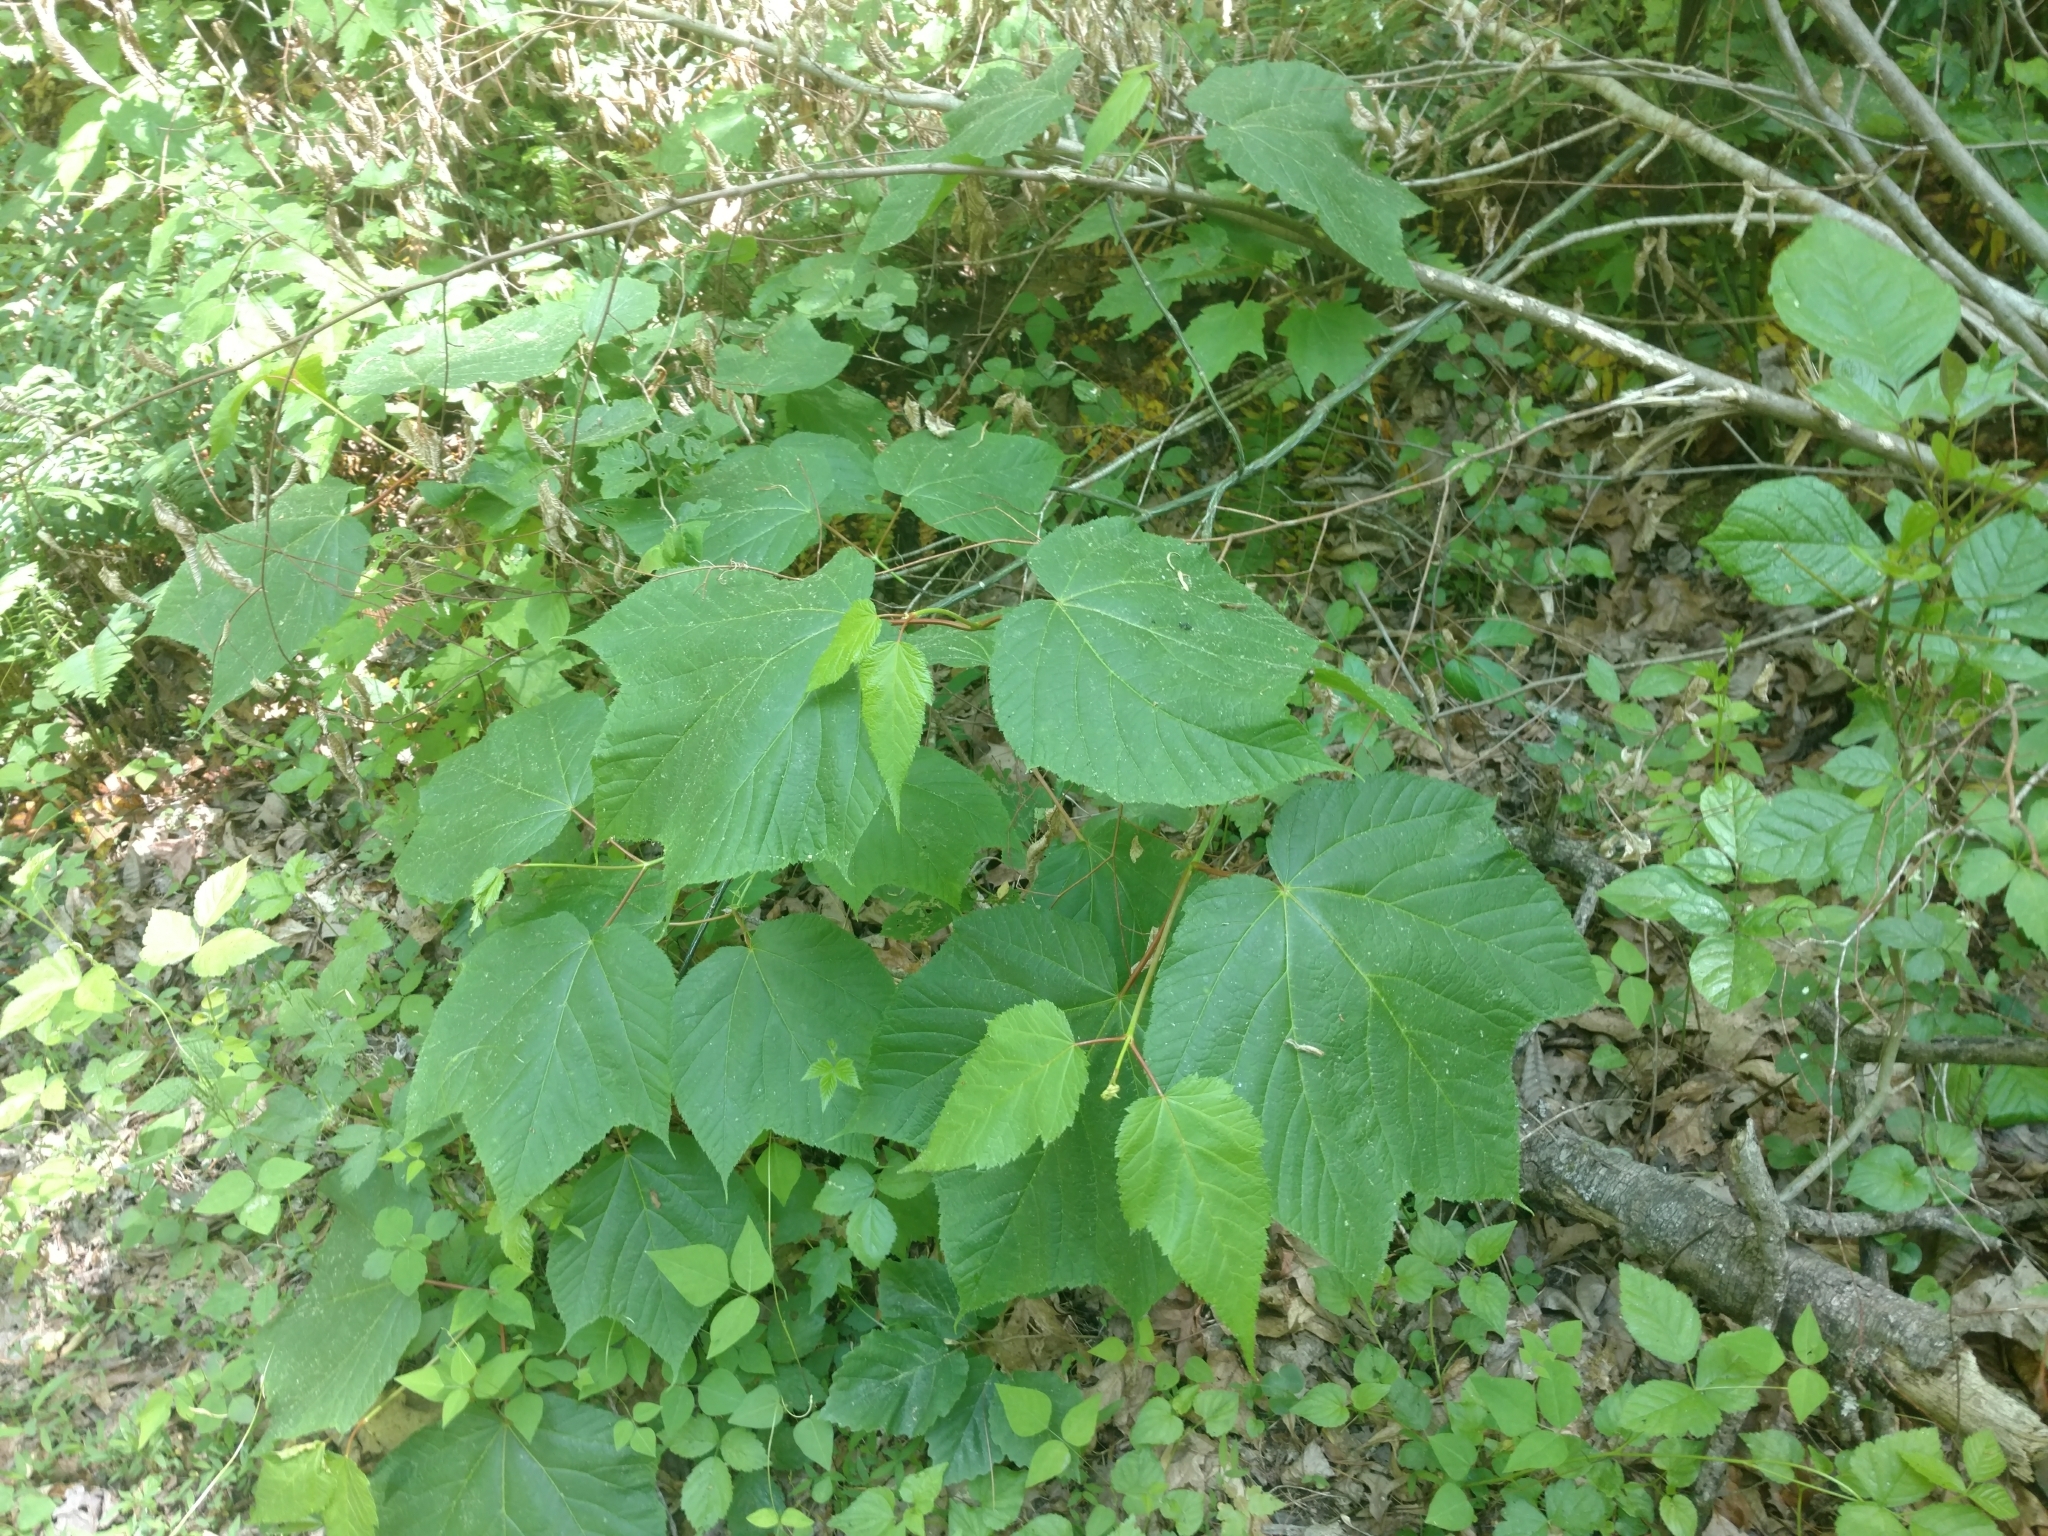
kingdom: Plantae
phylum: Tracheophyta
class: Magnoliopsida
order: Sapindales
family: Sapindaceae
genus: Acer
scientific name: Acer pensylvanicum
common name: Moosewood
